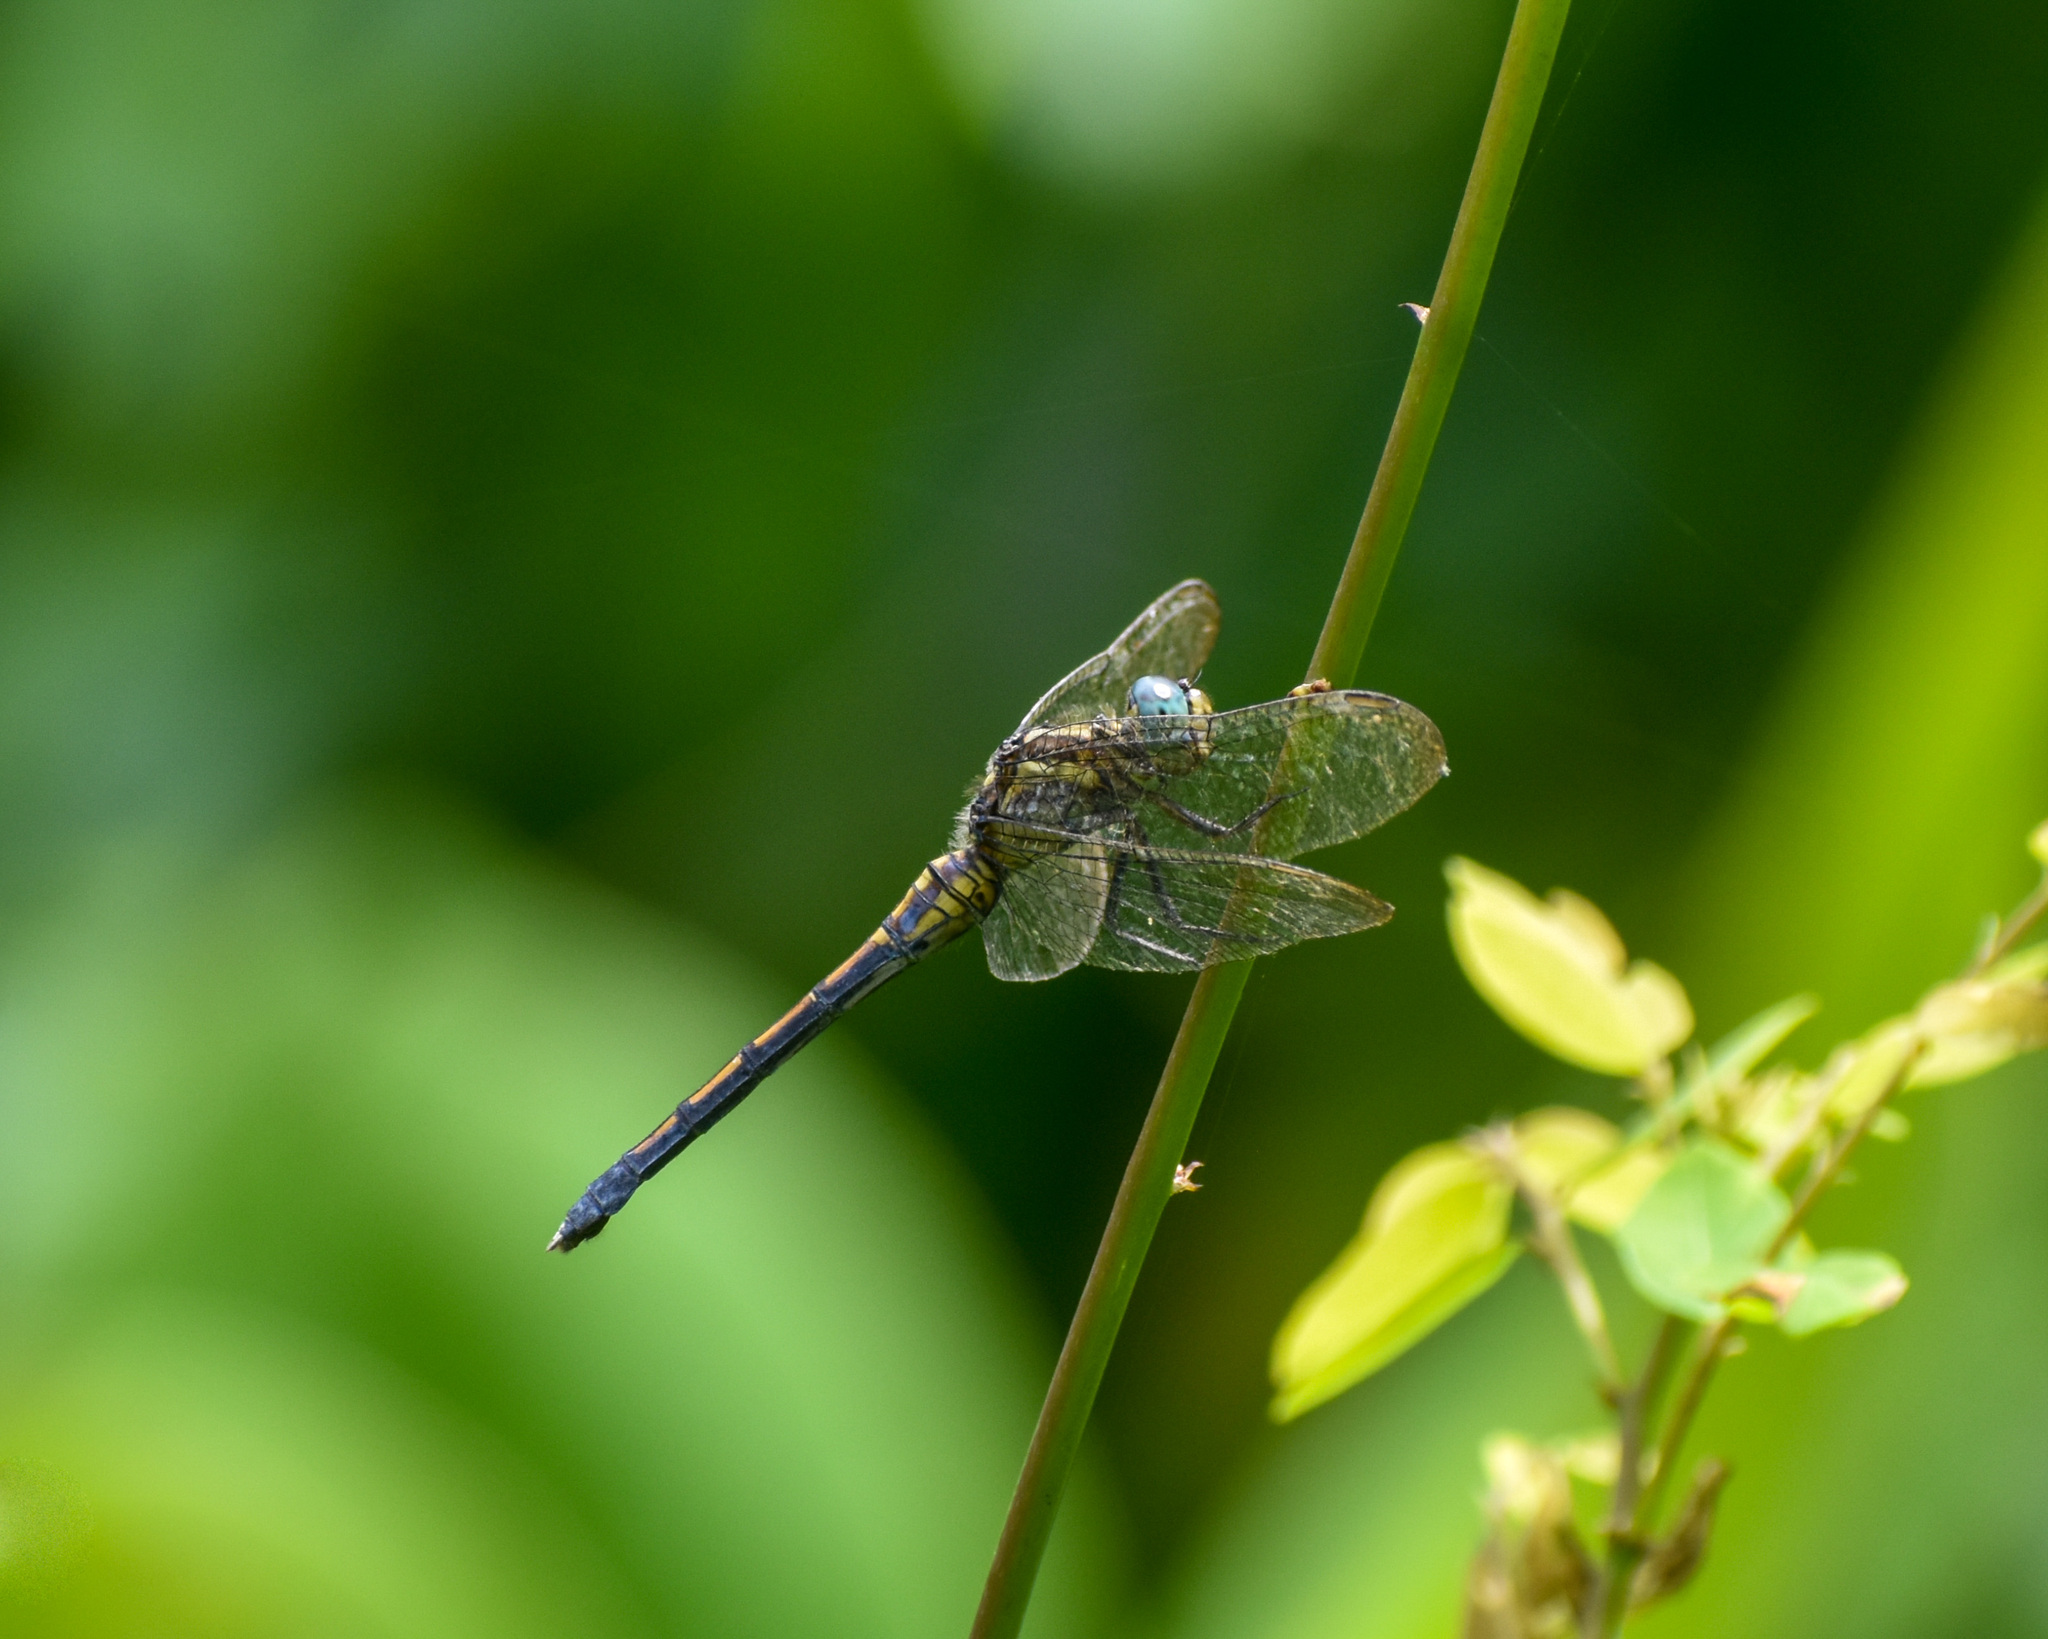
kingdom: Animalia
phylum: Arthropoda
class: Insecta
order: Odonata
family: Libellulidae
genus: Orthetrum
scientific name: Orthetrum luzonicum
